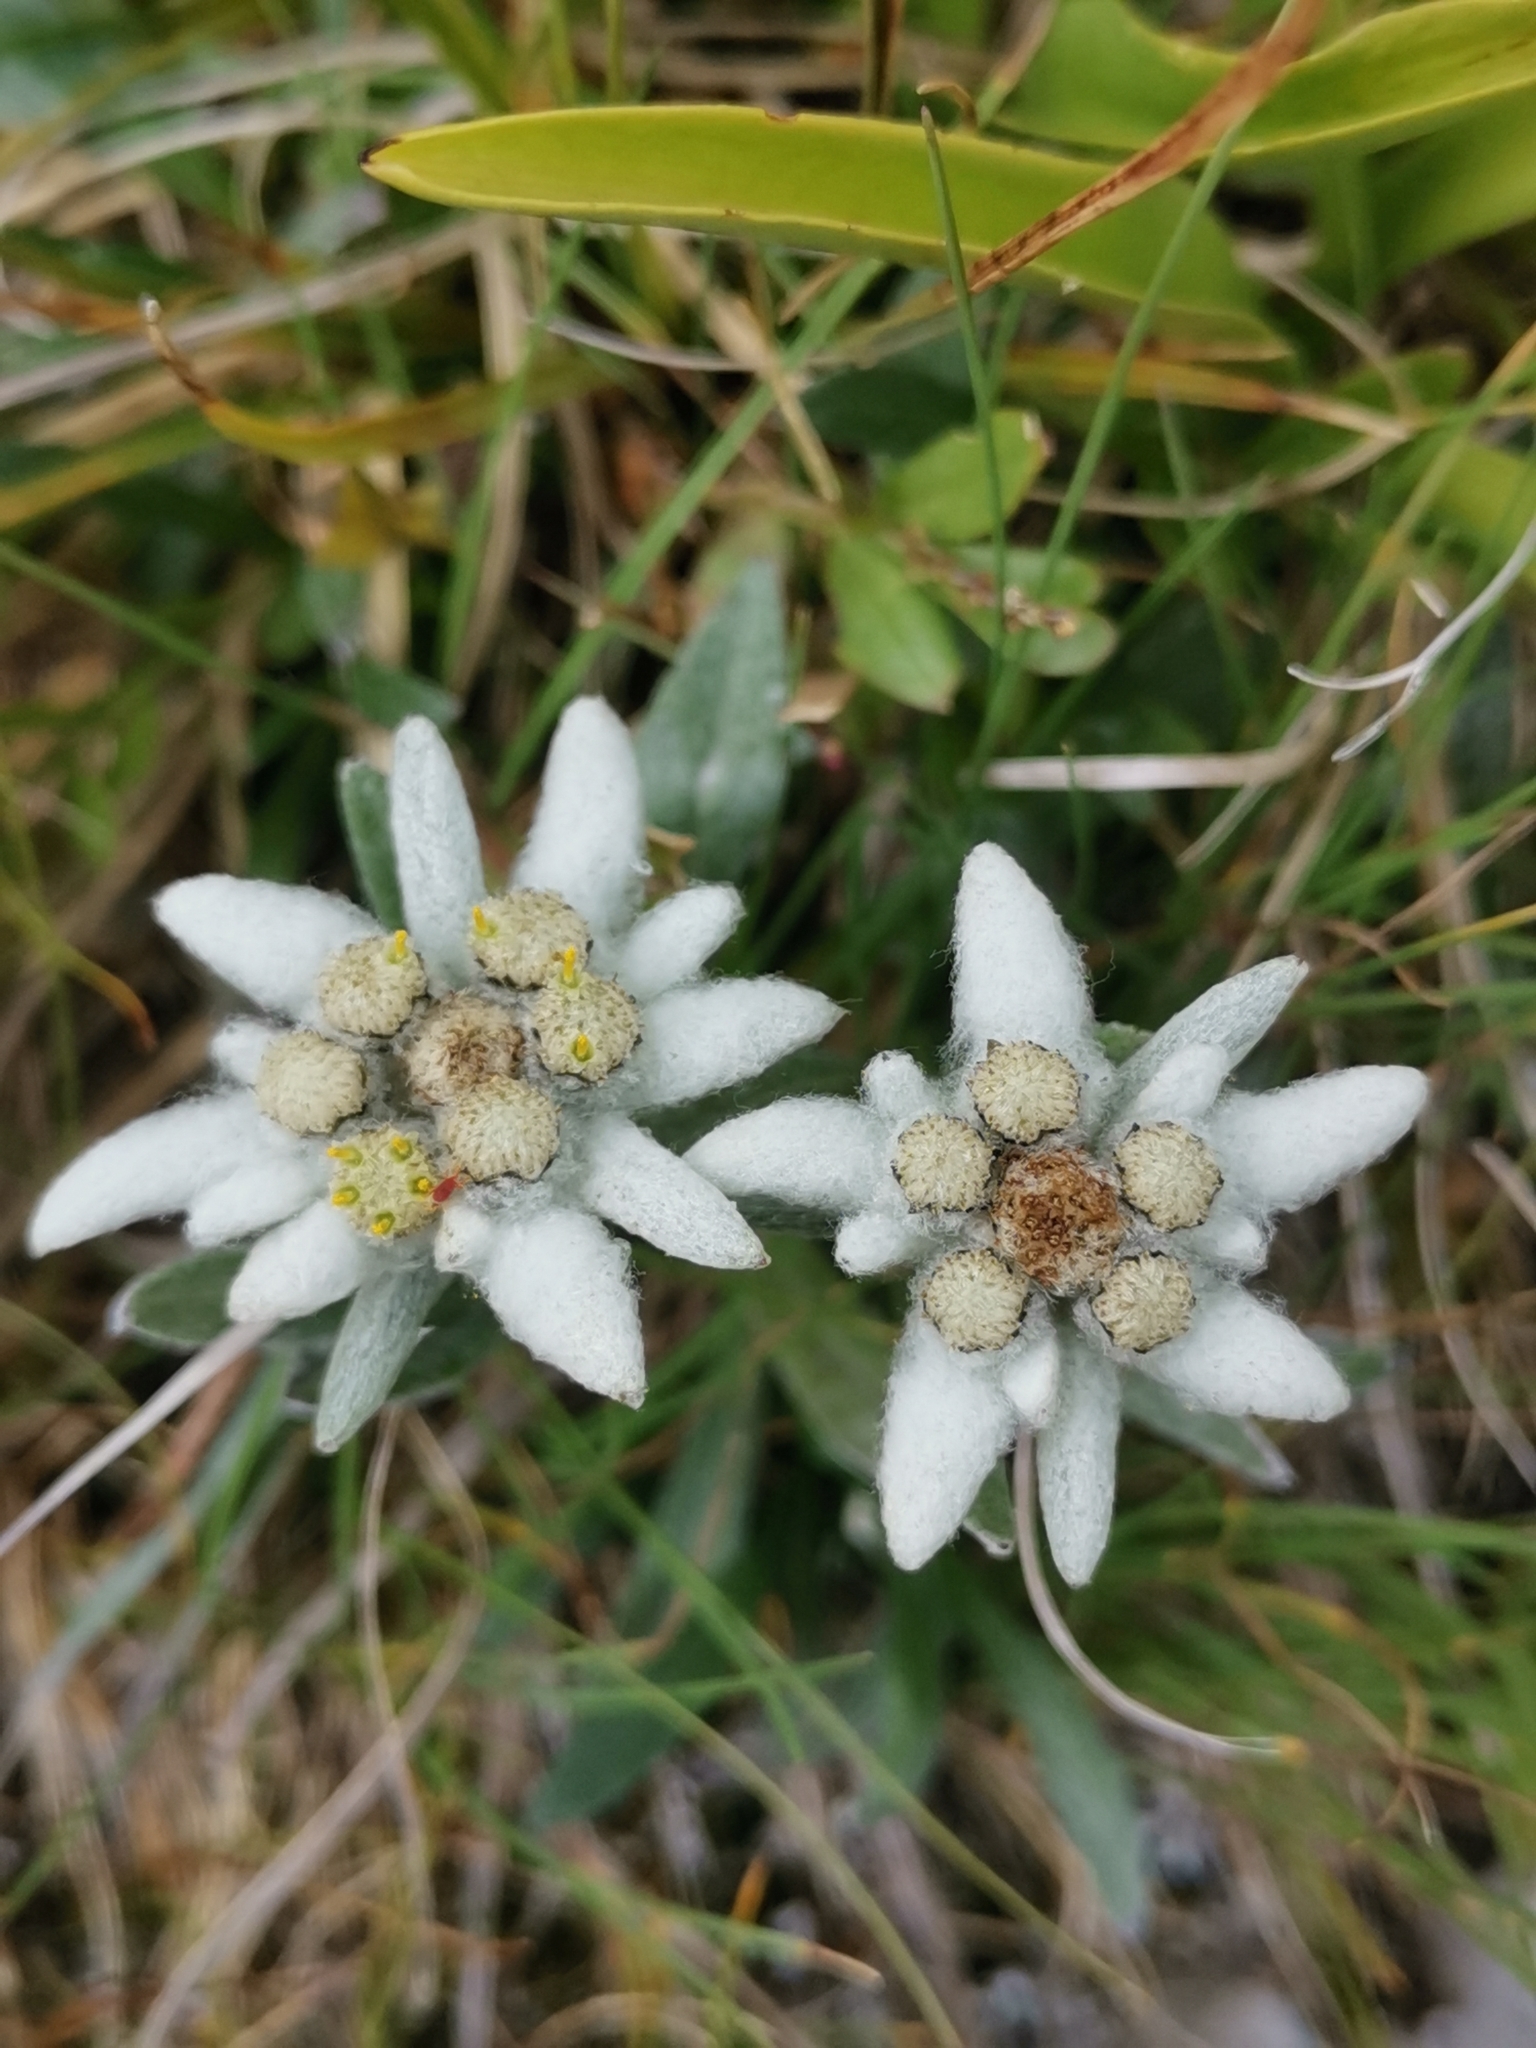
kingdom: Plantae
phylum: Tracheophyta
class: Magnoliopsida
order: Asterales
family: Asteraceae
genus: Leontopodium
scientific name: Leontopodium nivale
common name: Edelweiss
